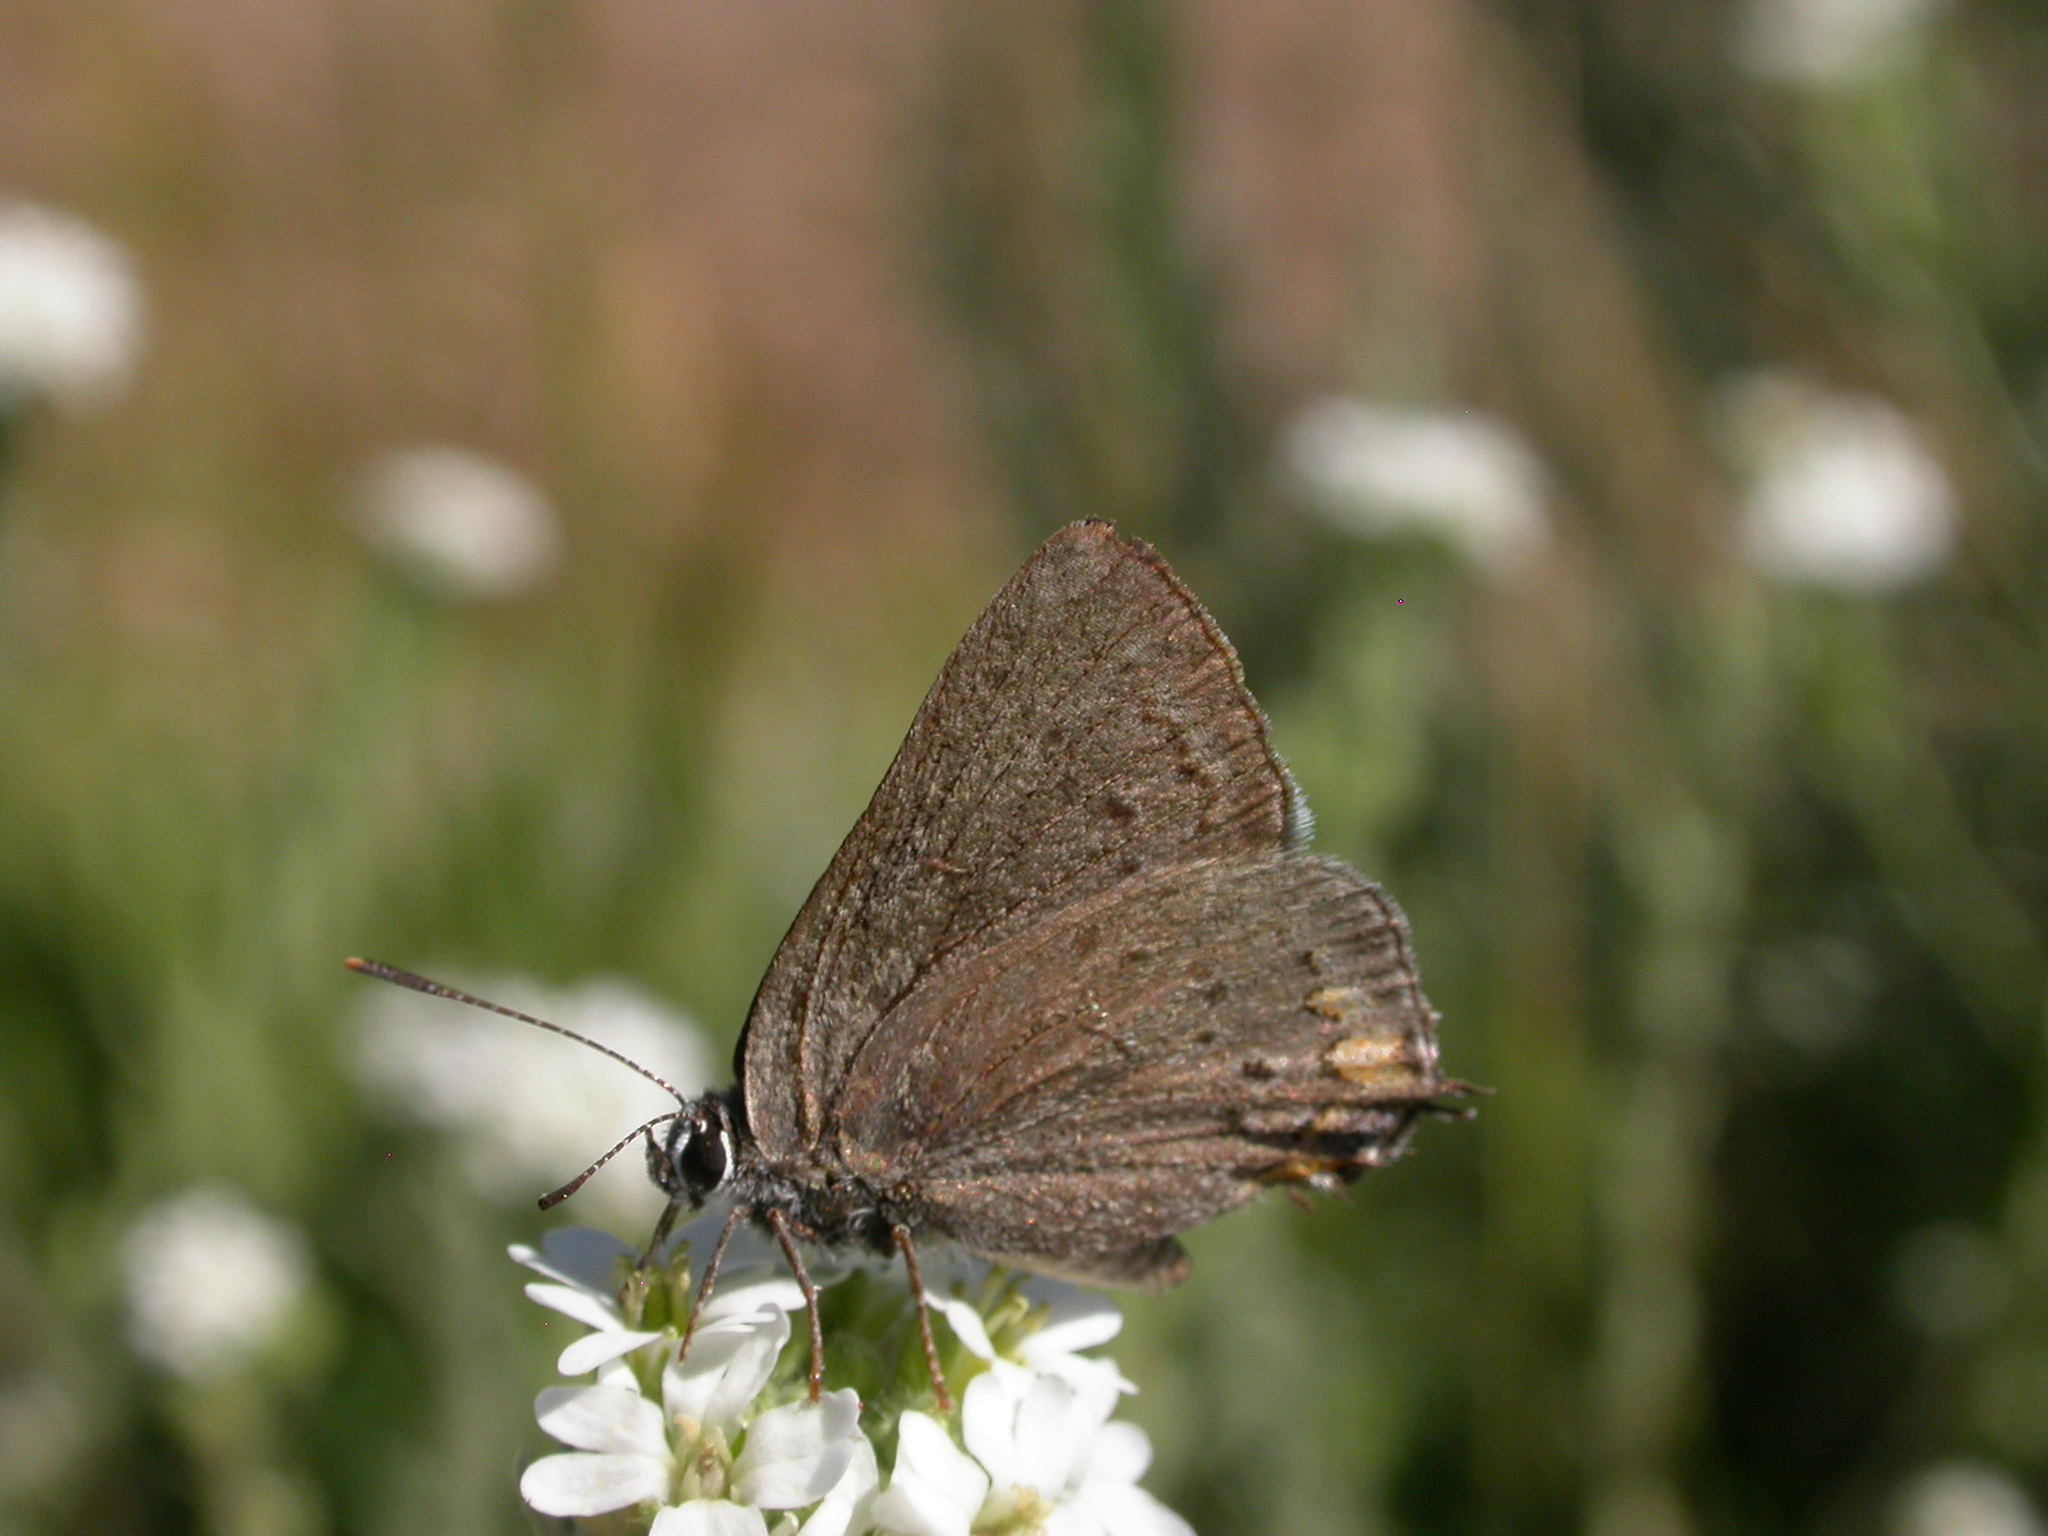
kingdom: Animalia
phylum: Arthropoda
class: Insecta
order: Lepidoptera
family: Lycaenidae
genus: Strymon
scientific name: Strymon acadica
